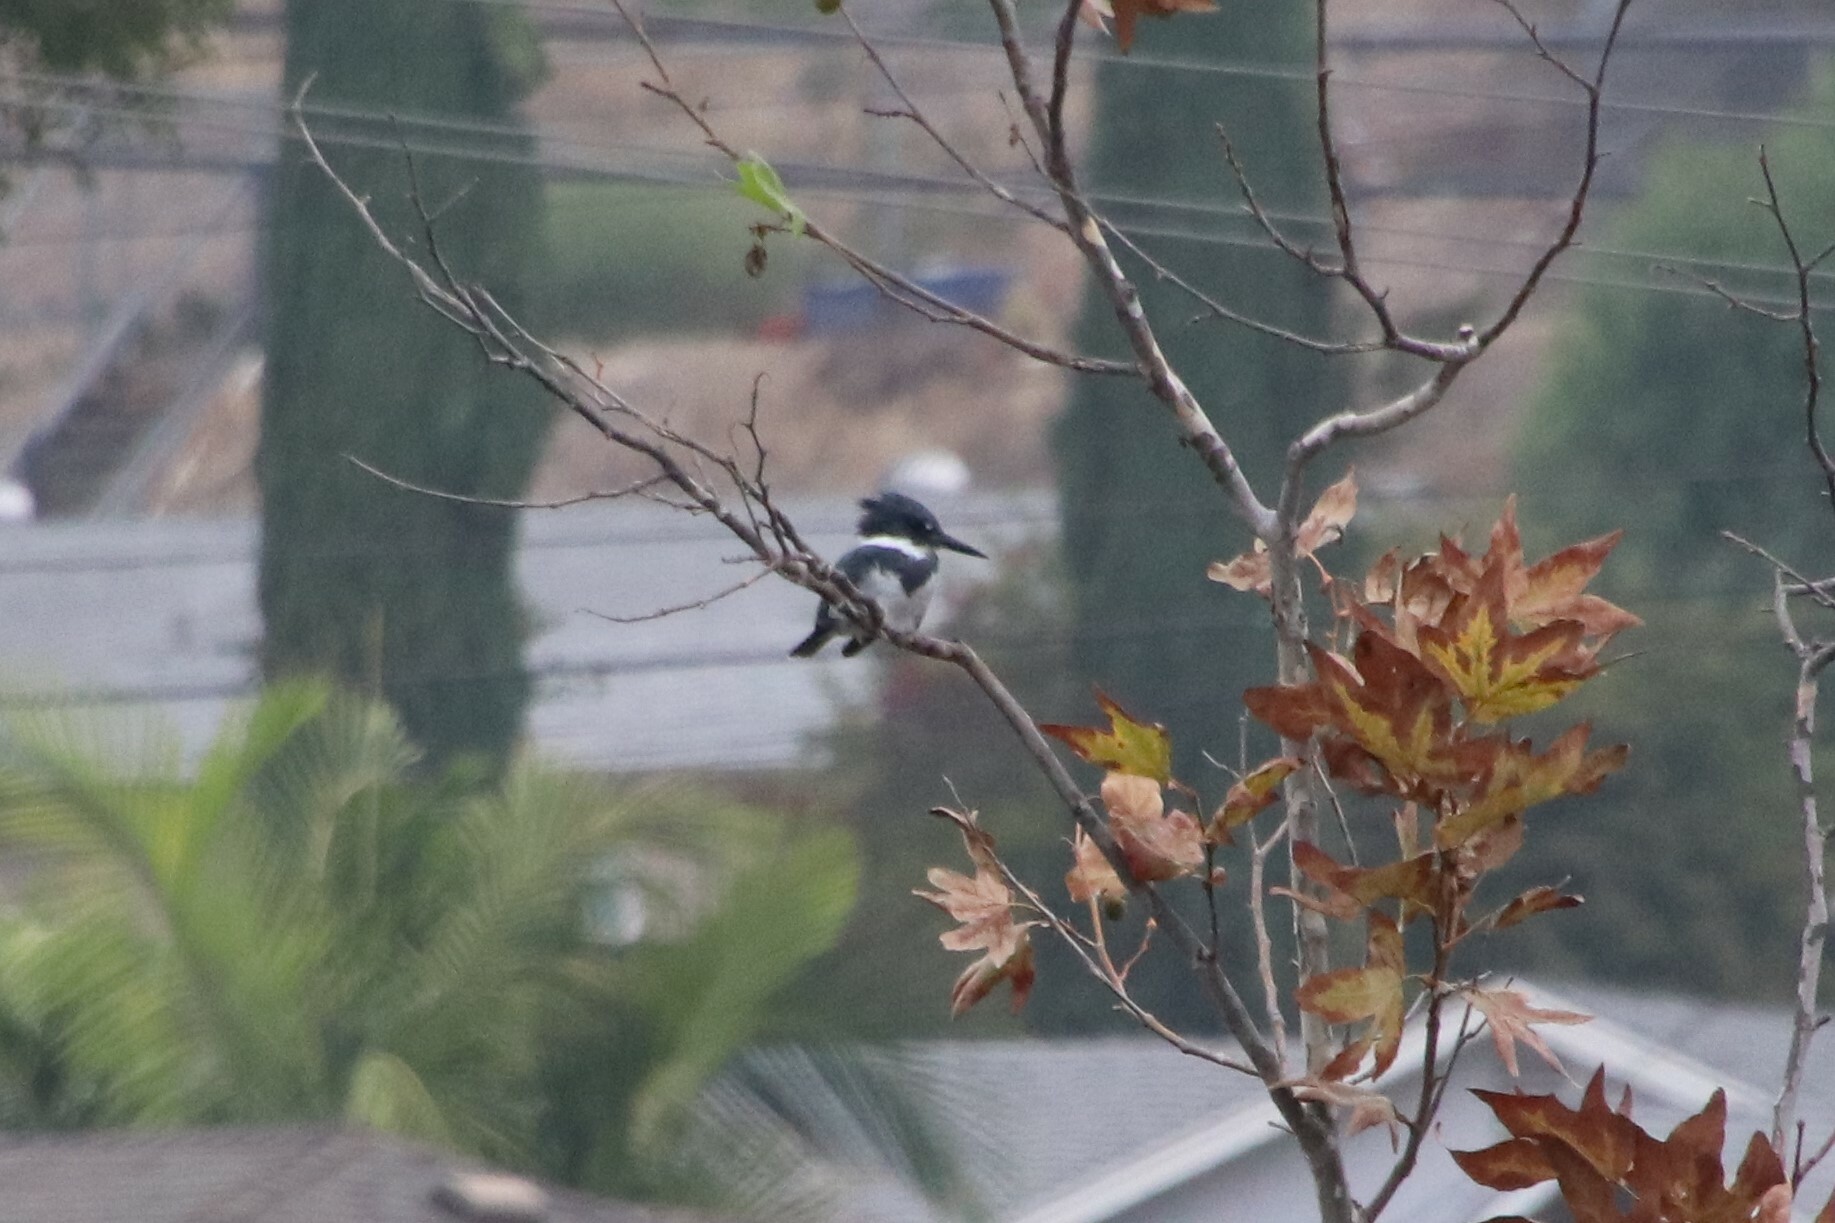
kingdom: Animalia
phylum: Chordata
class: Aves
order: Coraciiformes
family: Alcedinidae
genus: Megaceryle
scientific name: Megaceryle alcyon
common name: Belted kingfisher
